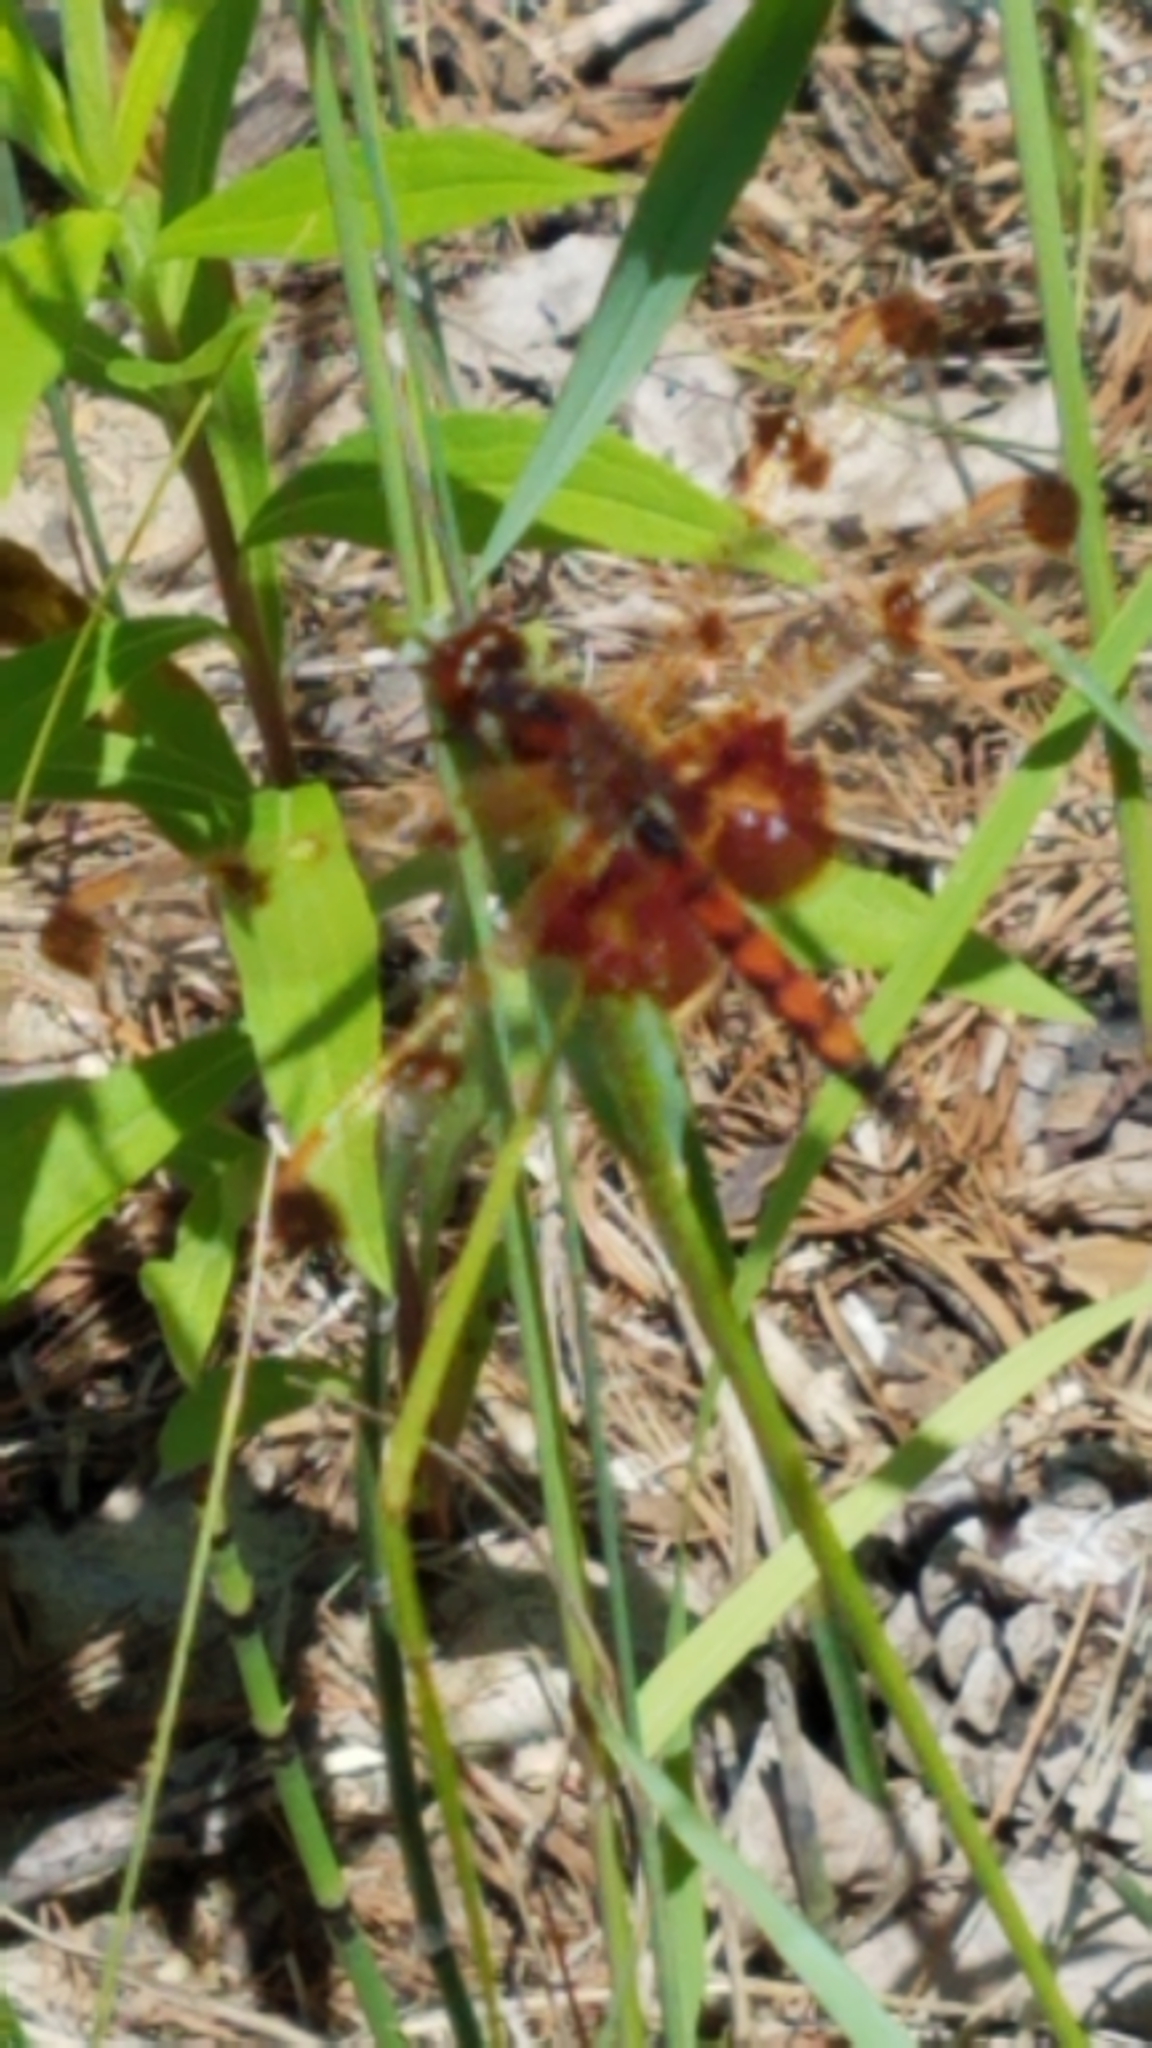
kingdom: Animalia
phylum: Arthropoda
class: Insecta
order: Odonata
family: Libellulidae
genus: Celithemis
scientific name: Celithemis elisa
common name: Calico pennant
